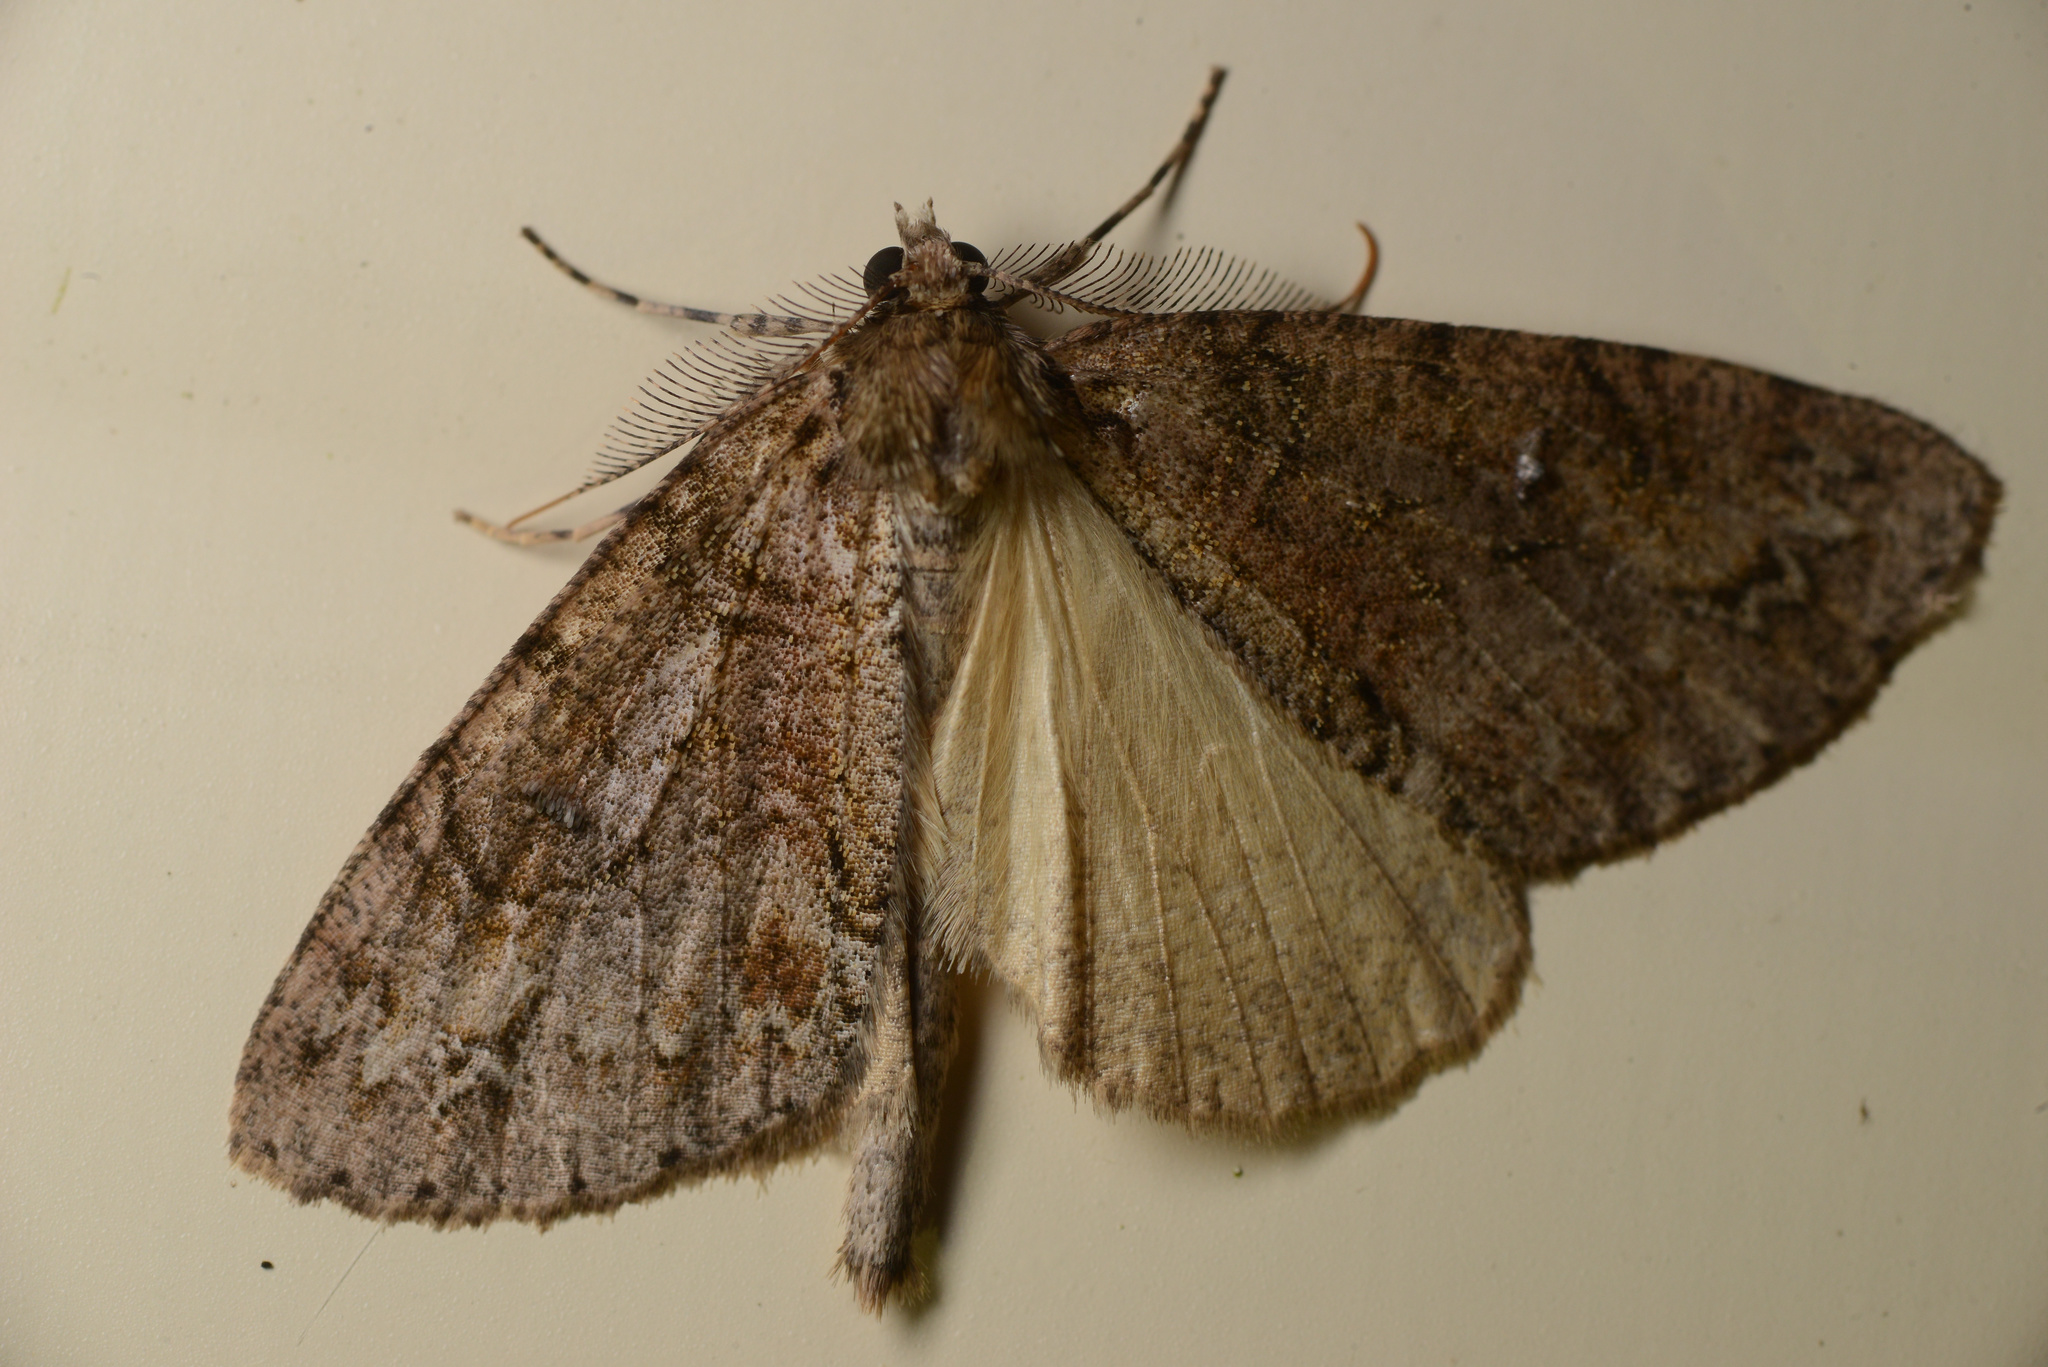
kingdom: Animalia
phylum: Arthropoda
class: Insecta
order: Lepidoptera
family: Geometridae
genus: Pseudocoremia
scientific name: Pseudocoremia suavis
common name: Common forest looper
